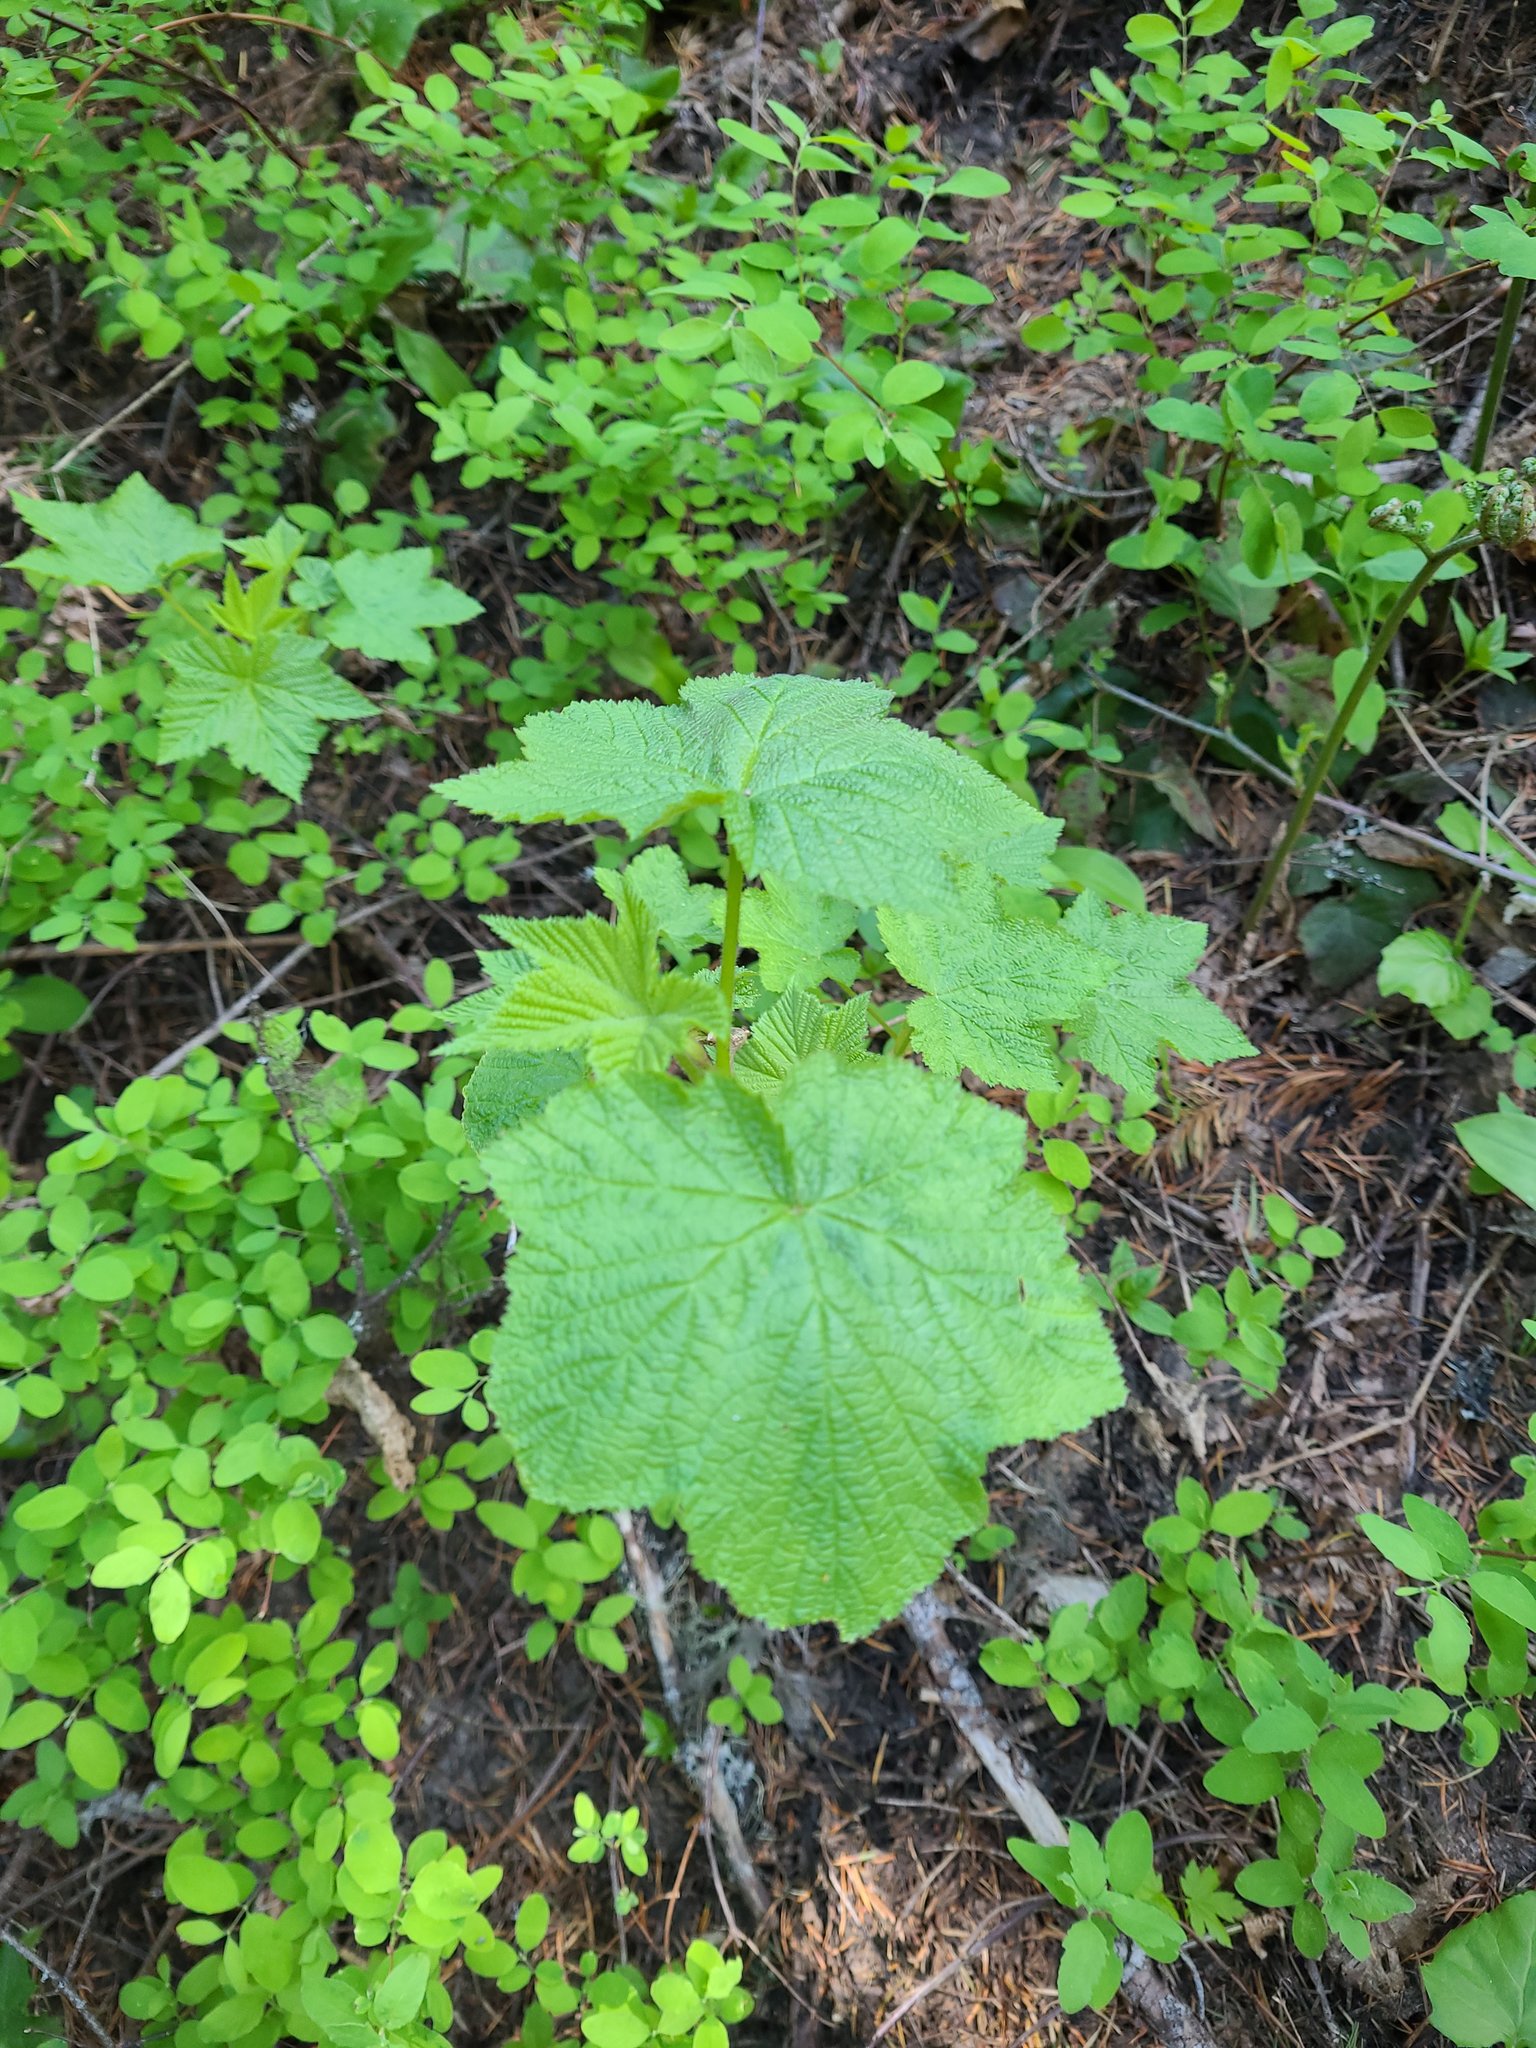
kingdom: Plantae
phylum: Tracheophyta
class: Magnoliopsida
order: Rosales
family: Rosaceae
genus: Rubus
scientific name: Rubus parviflorus
